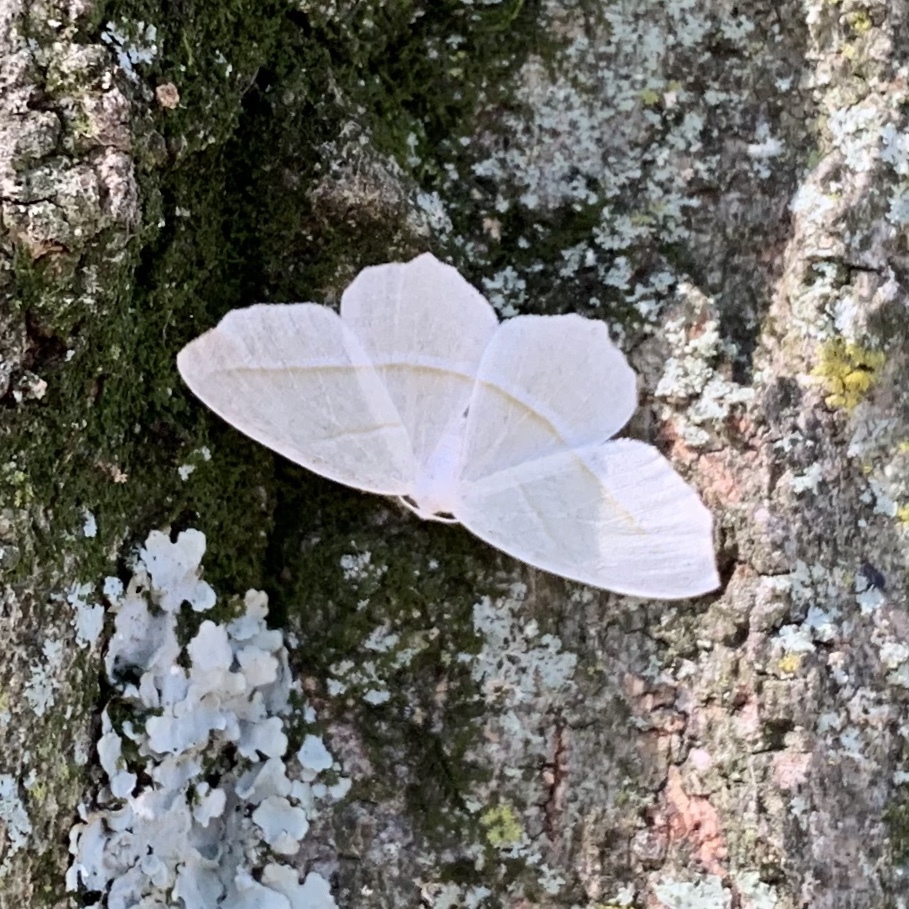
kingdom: Animalia
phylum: Arthropoda
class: Insecta
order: Lepidoptera
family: Geometridae
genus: Campaea
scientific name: Campaea perlata
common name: Fringed looper
